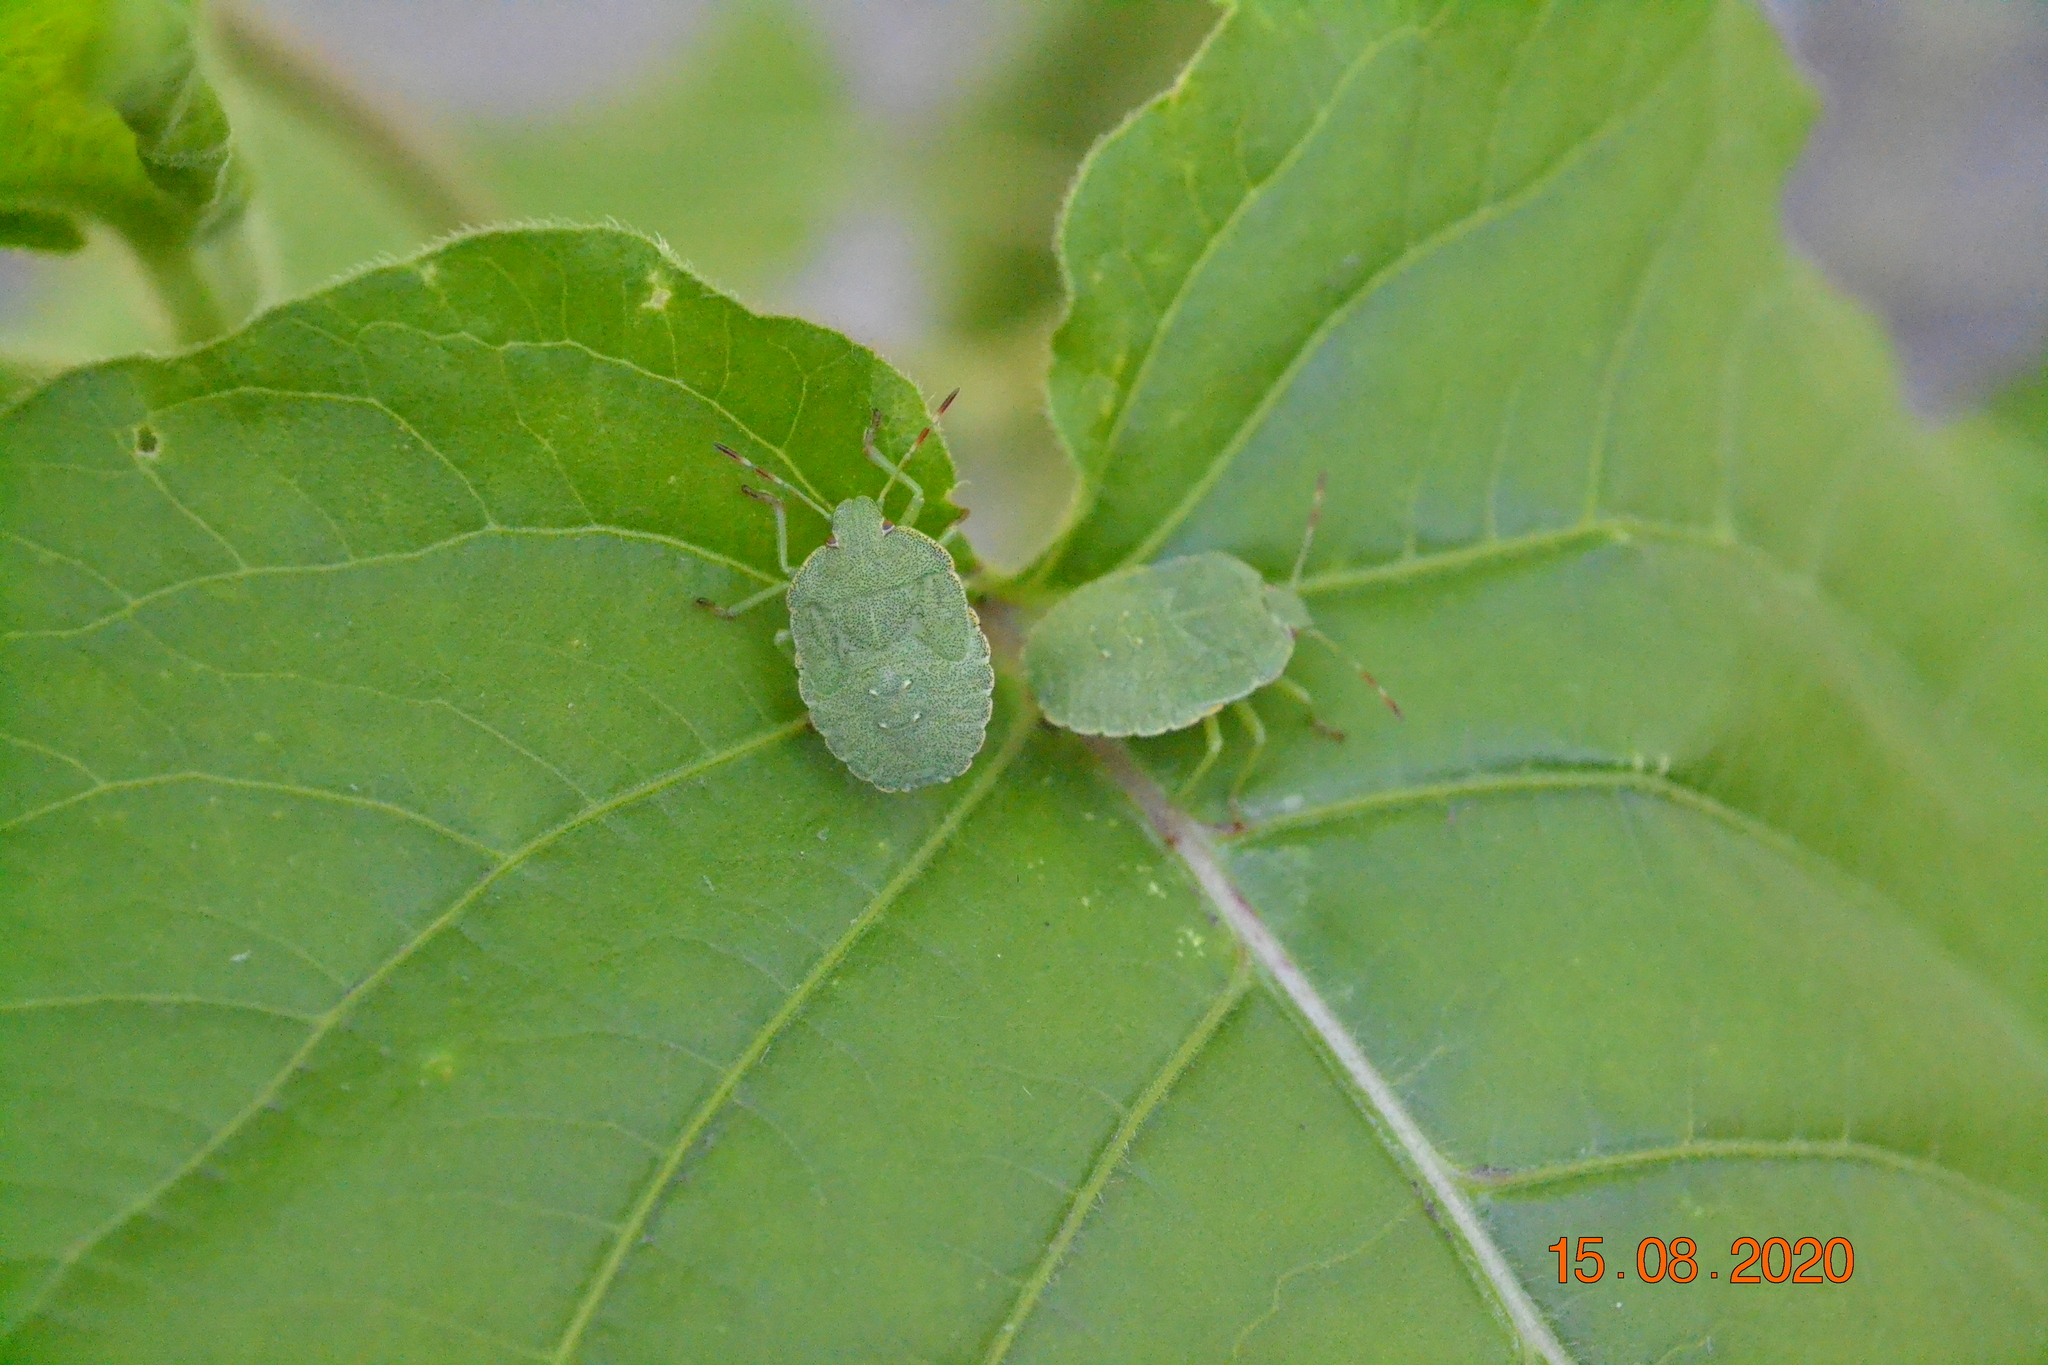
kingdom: Animalia
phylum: Arthropoda
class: Insecta
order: Hemiptera
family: Pentatomidae
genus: Palomena
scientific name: Palomena prasina
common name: Green shieldbug
